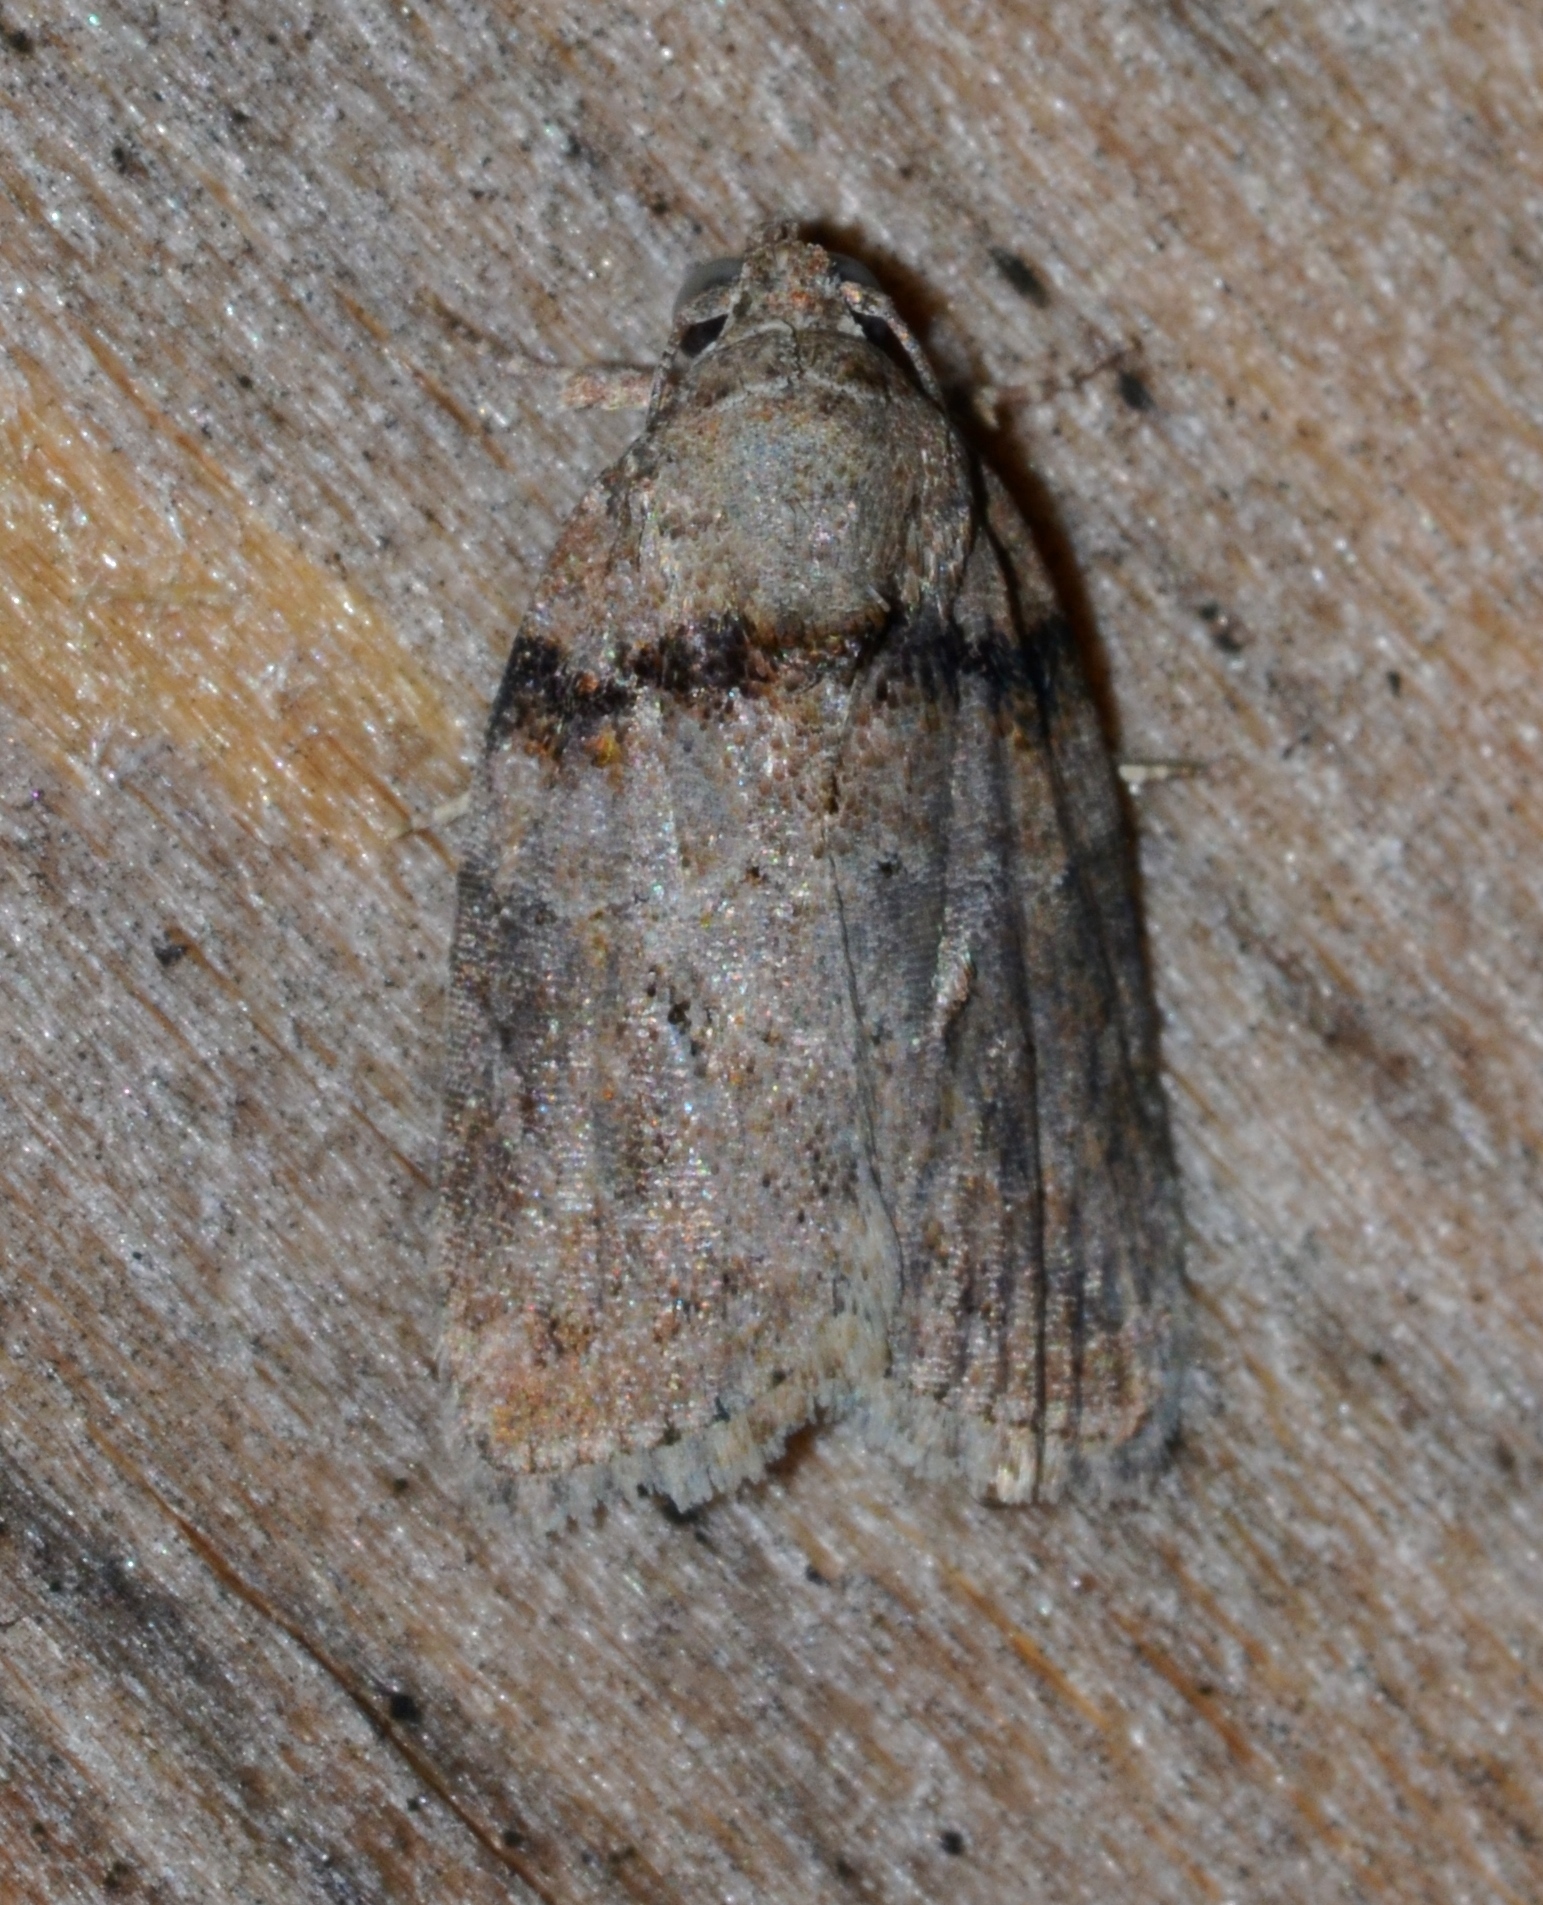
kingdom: Animalia
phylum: Arthropoda
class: Insecta
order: Lepidoptera
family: Nolidae
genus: Garella
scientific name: Garella nilotica
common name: Black-olive caterpillar moth
